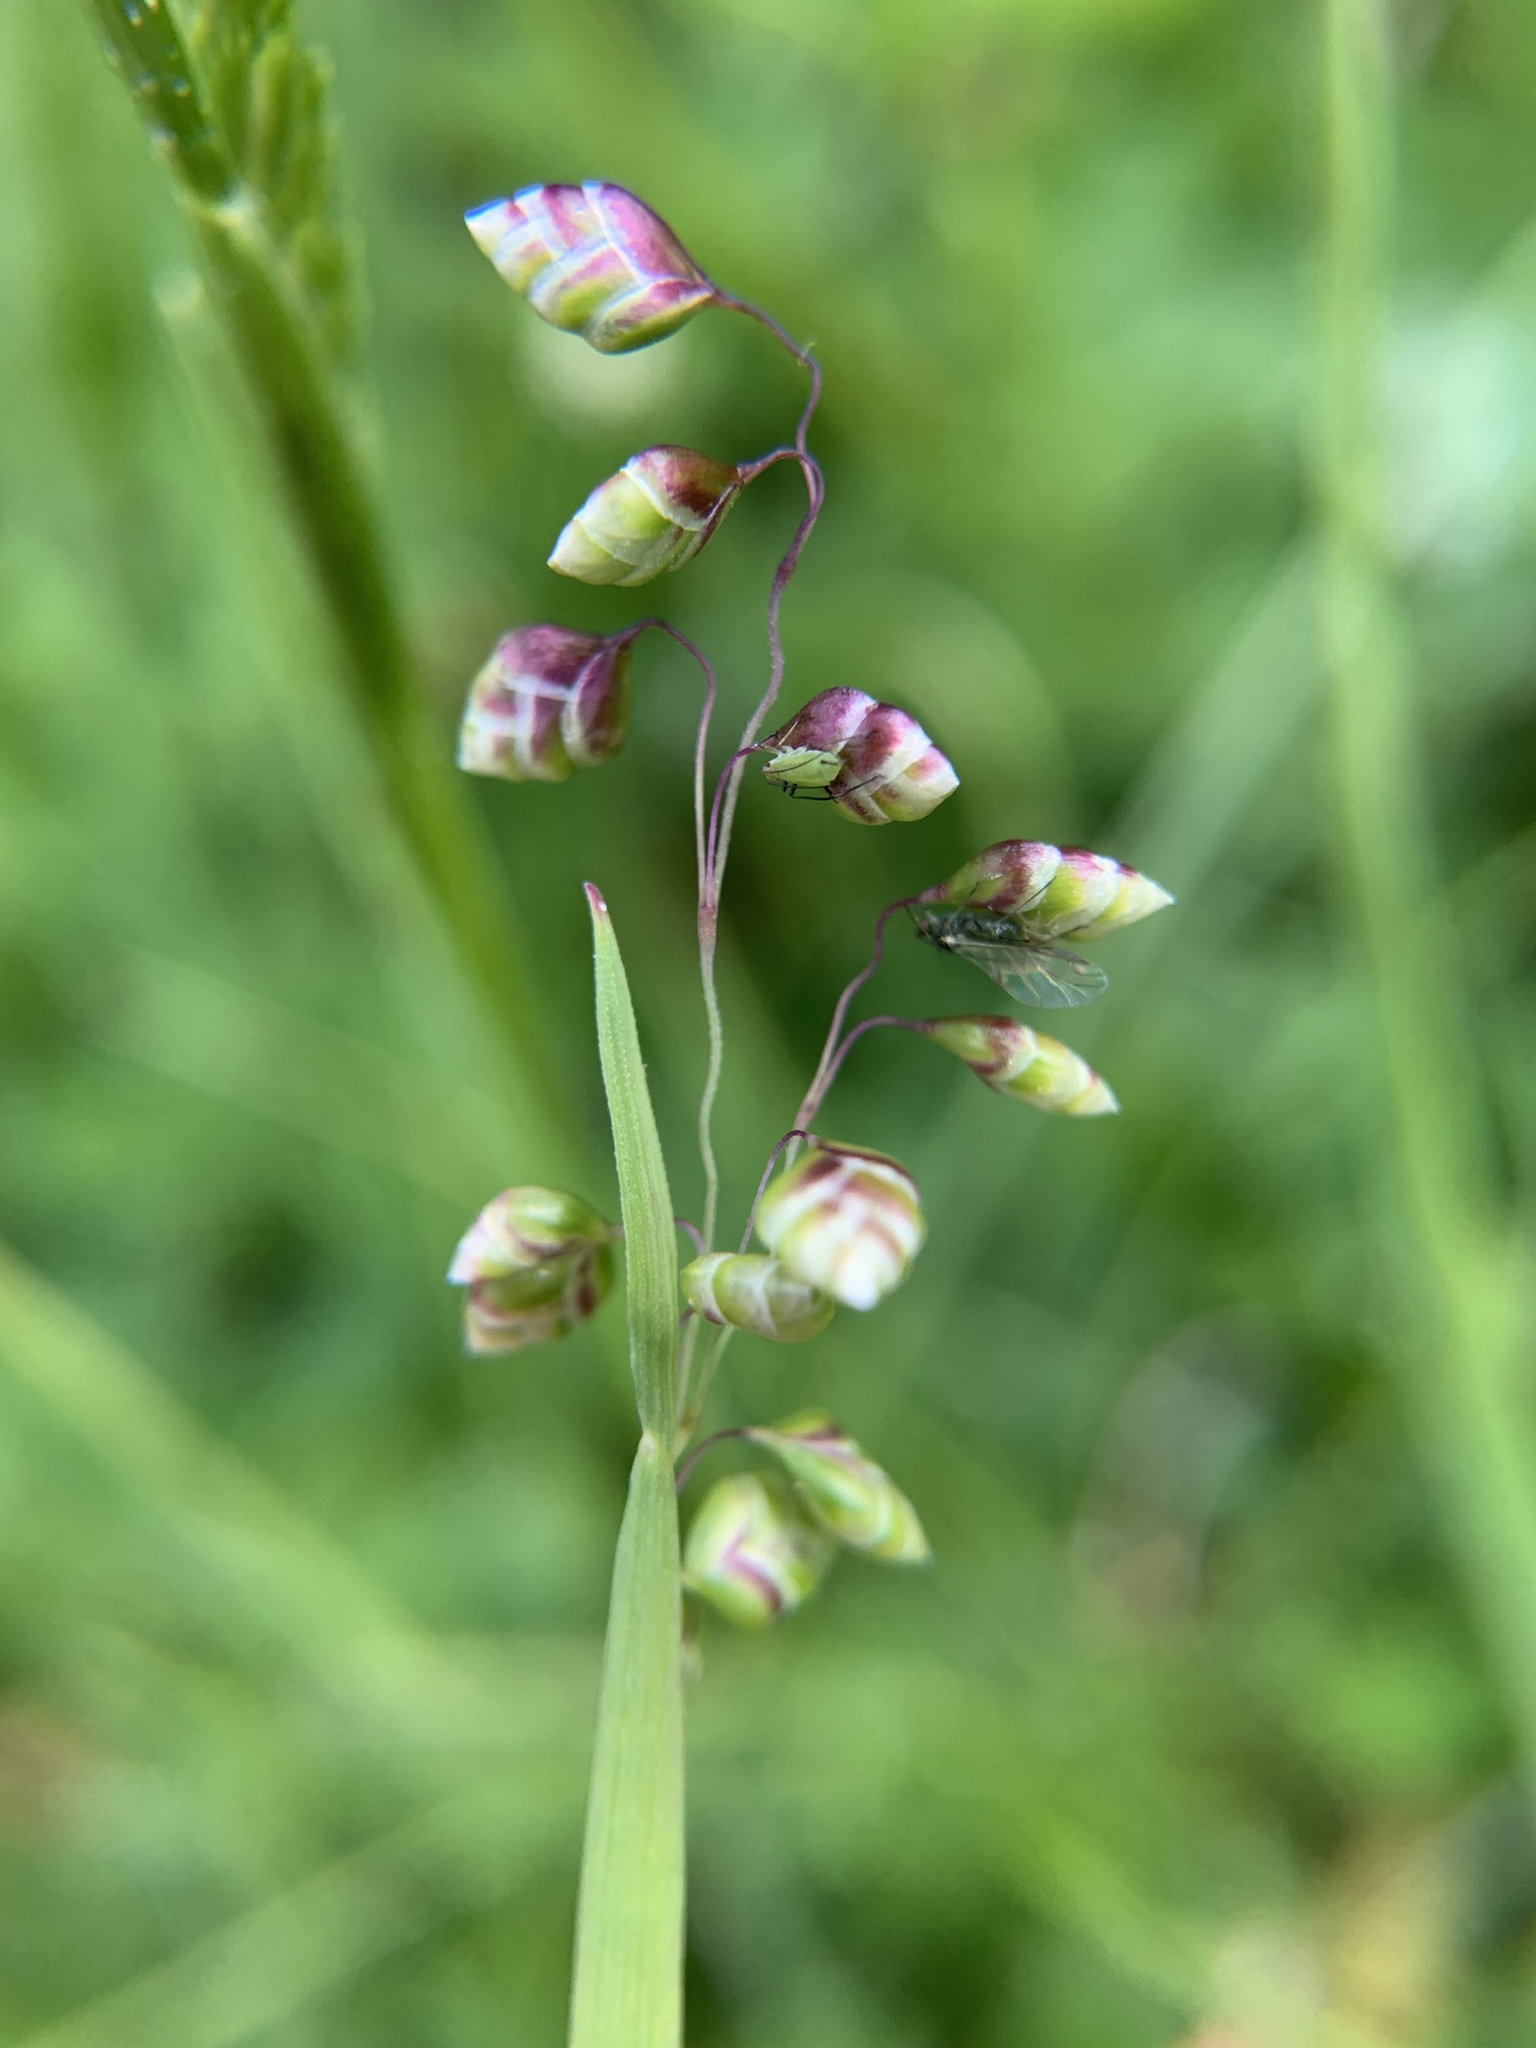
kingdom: Plantae
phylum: Tracheophyta
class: Liliopsida
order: Poales
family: Poaceae
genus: Briza
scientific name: Briza media
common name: Quaking grass
